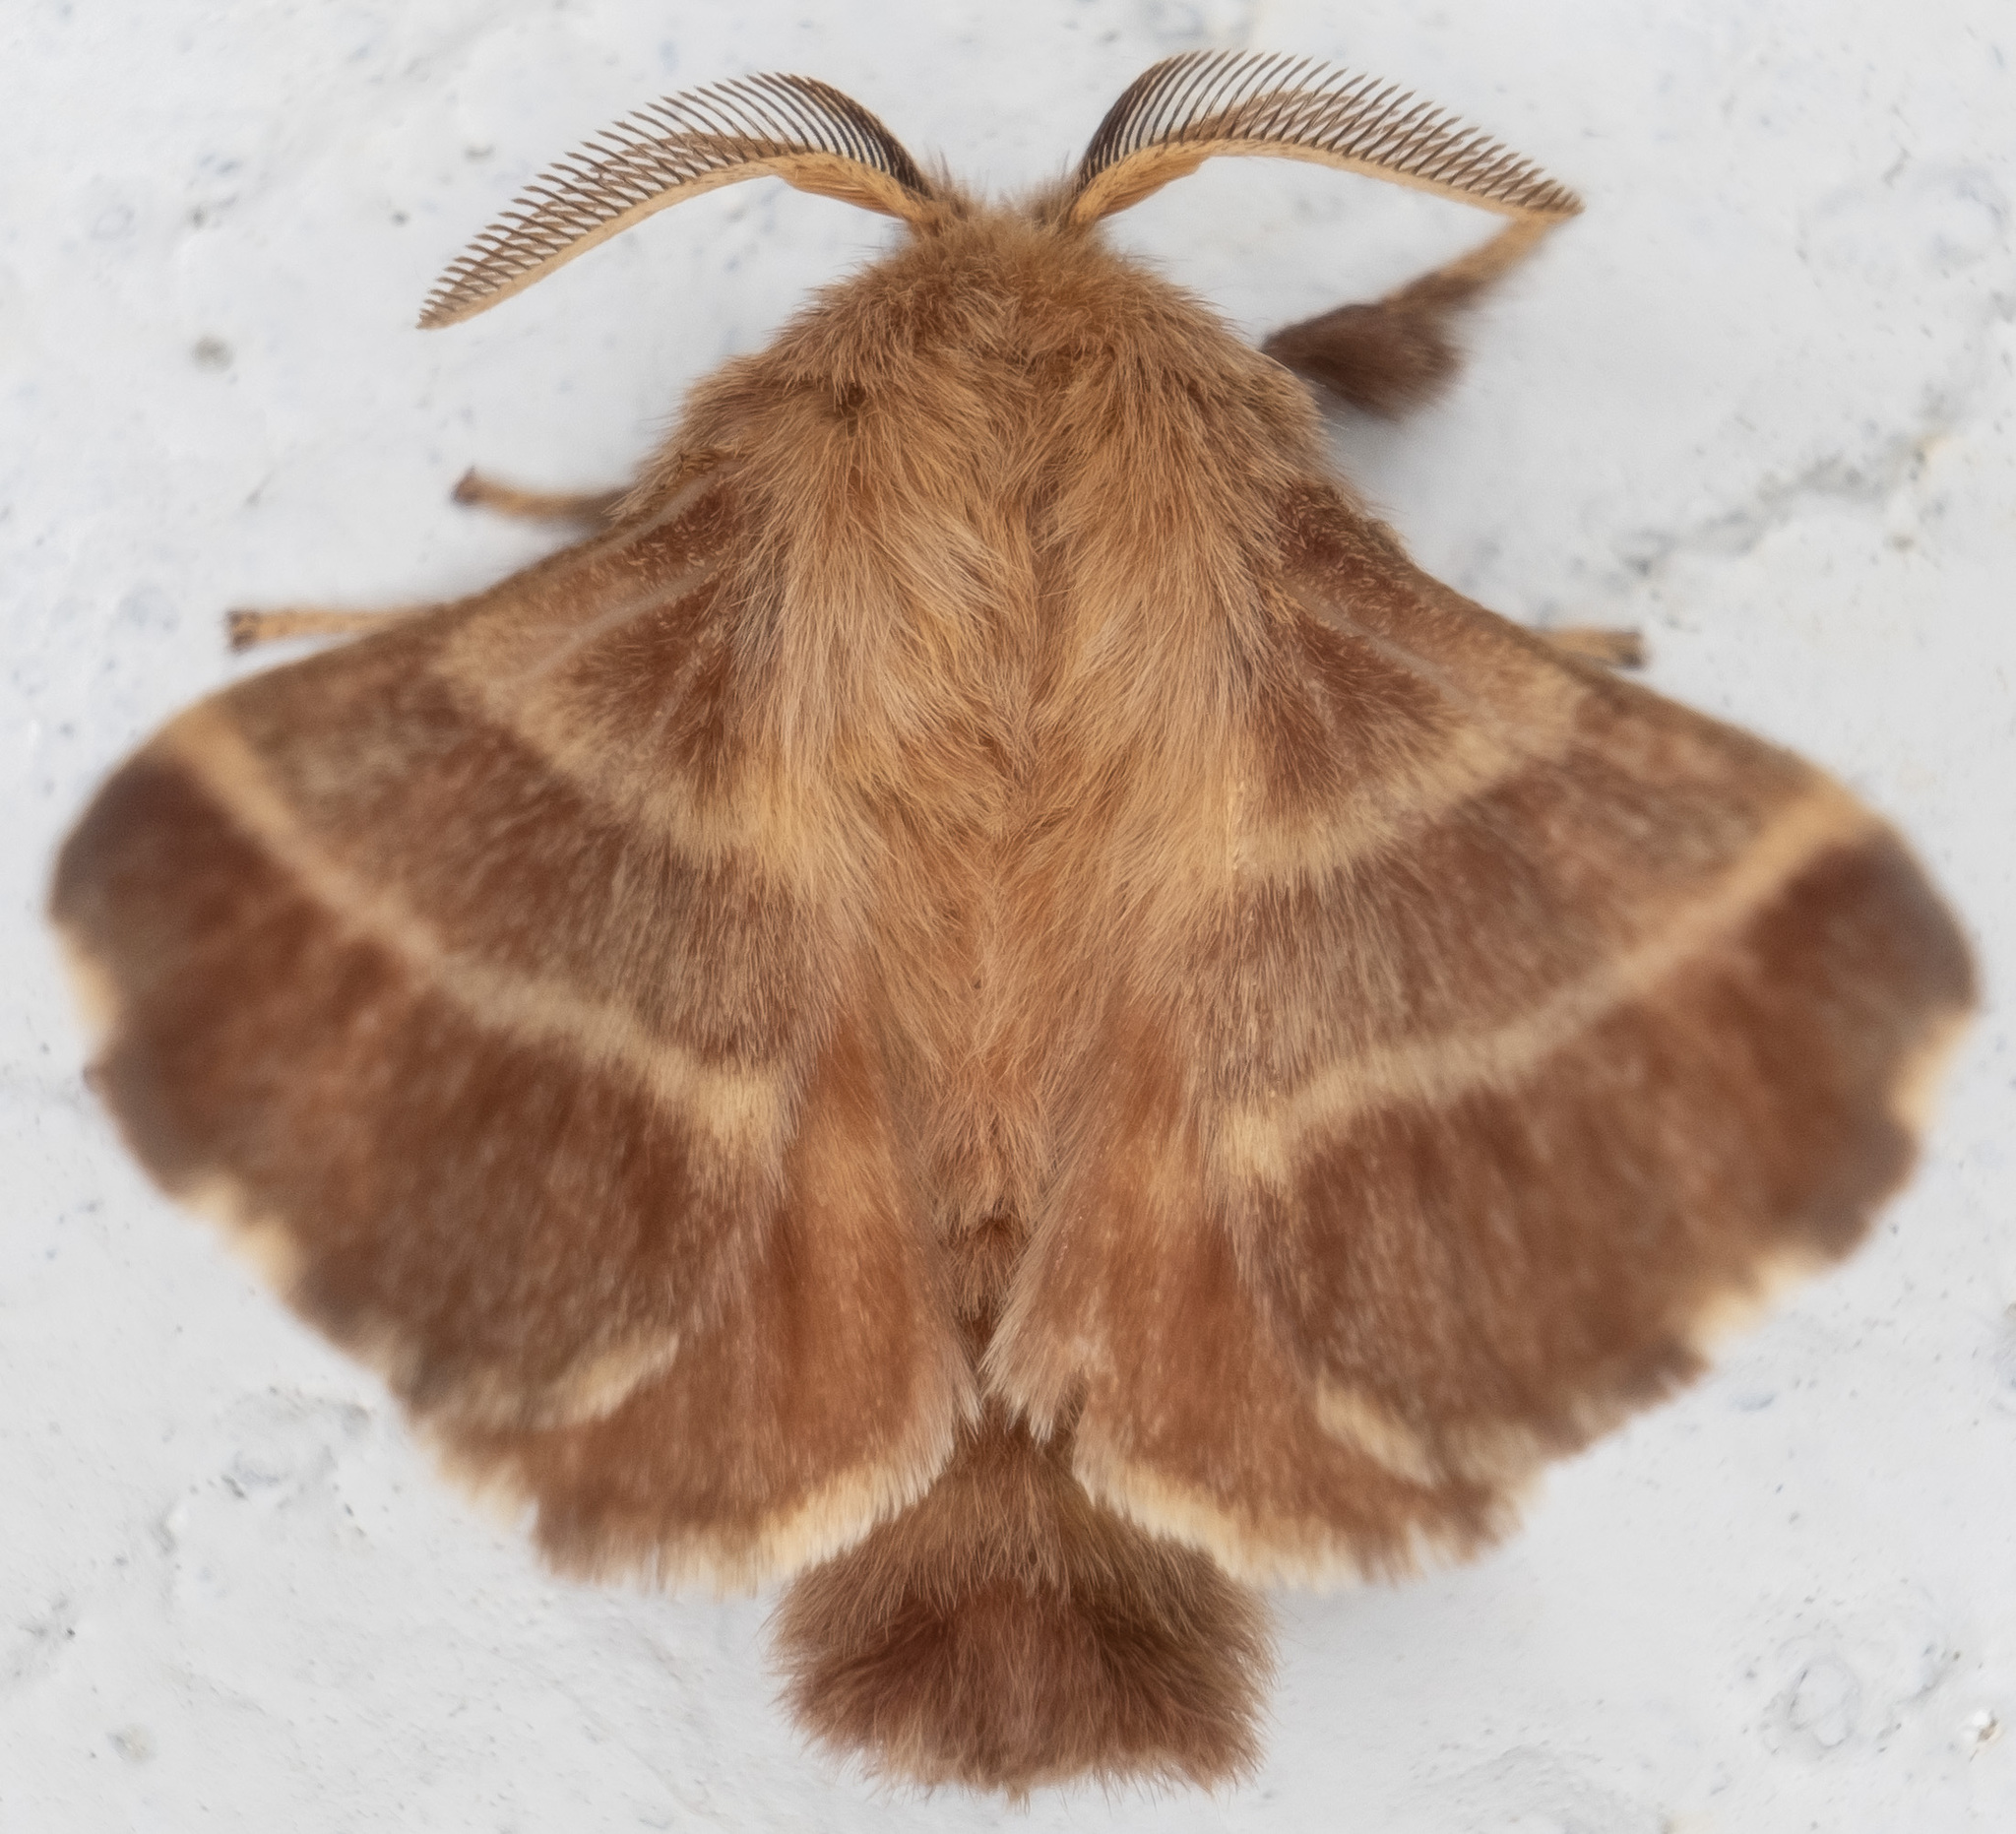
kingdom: Animalia
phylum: Arthropoda
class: Insecta
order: Lepidoptera
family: Lasiocampidae
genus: Malacosoma
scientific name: Malacosoma americana
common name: Eastern tent caterpillar moth
